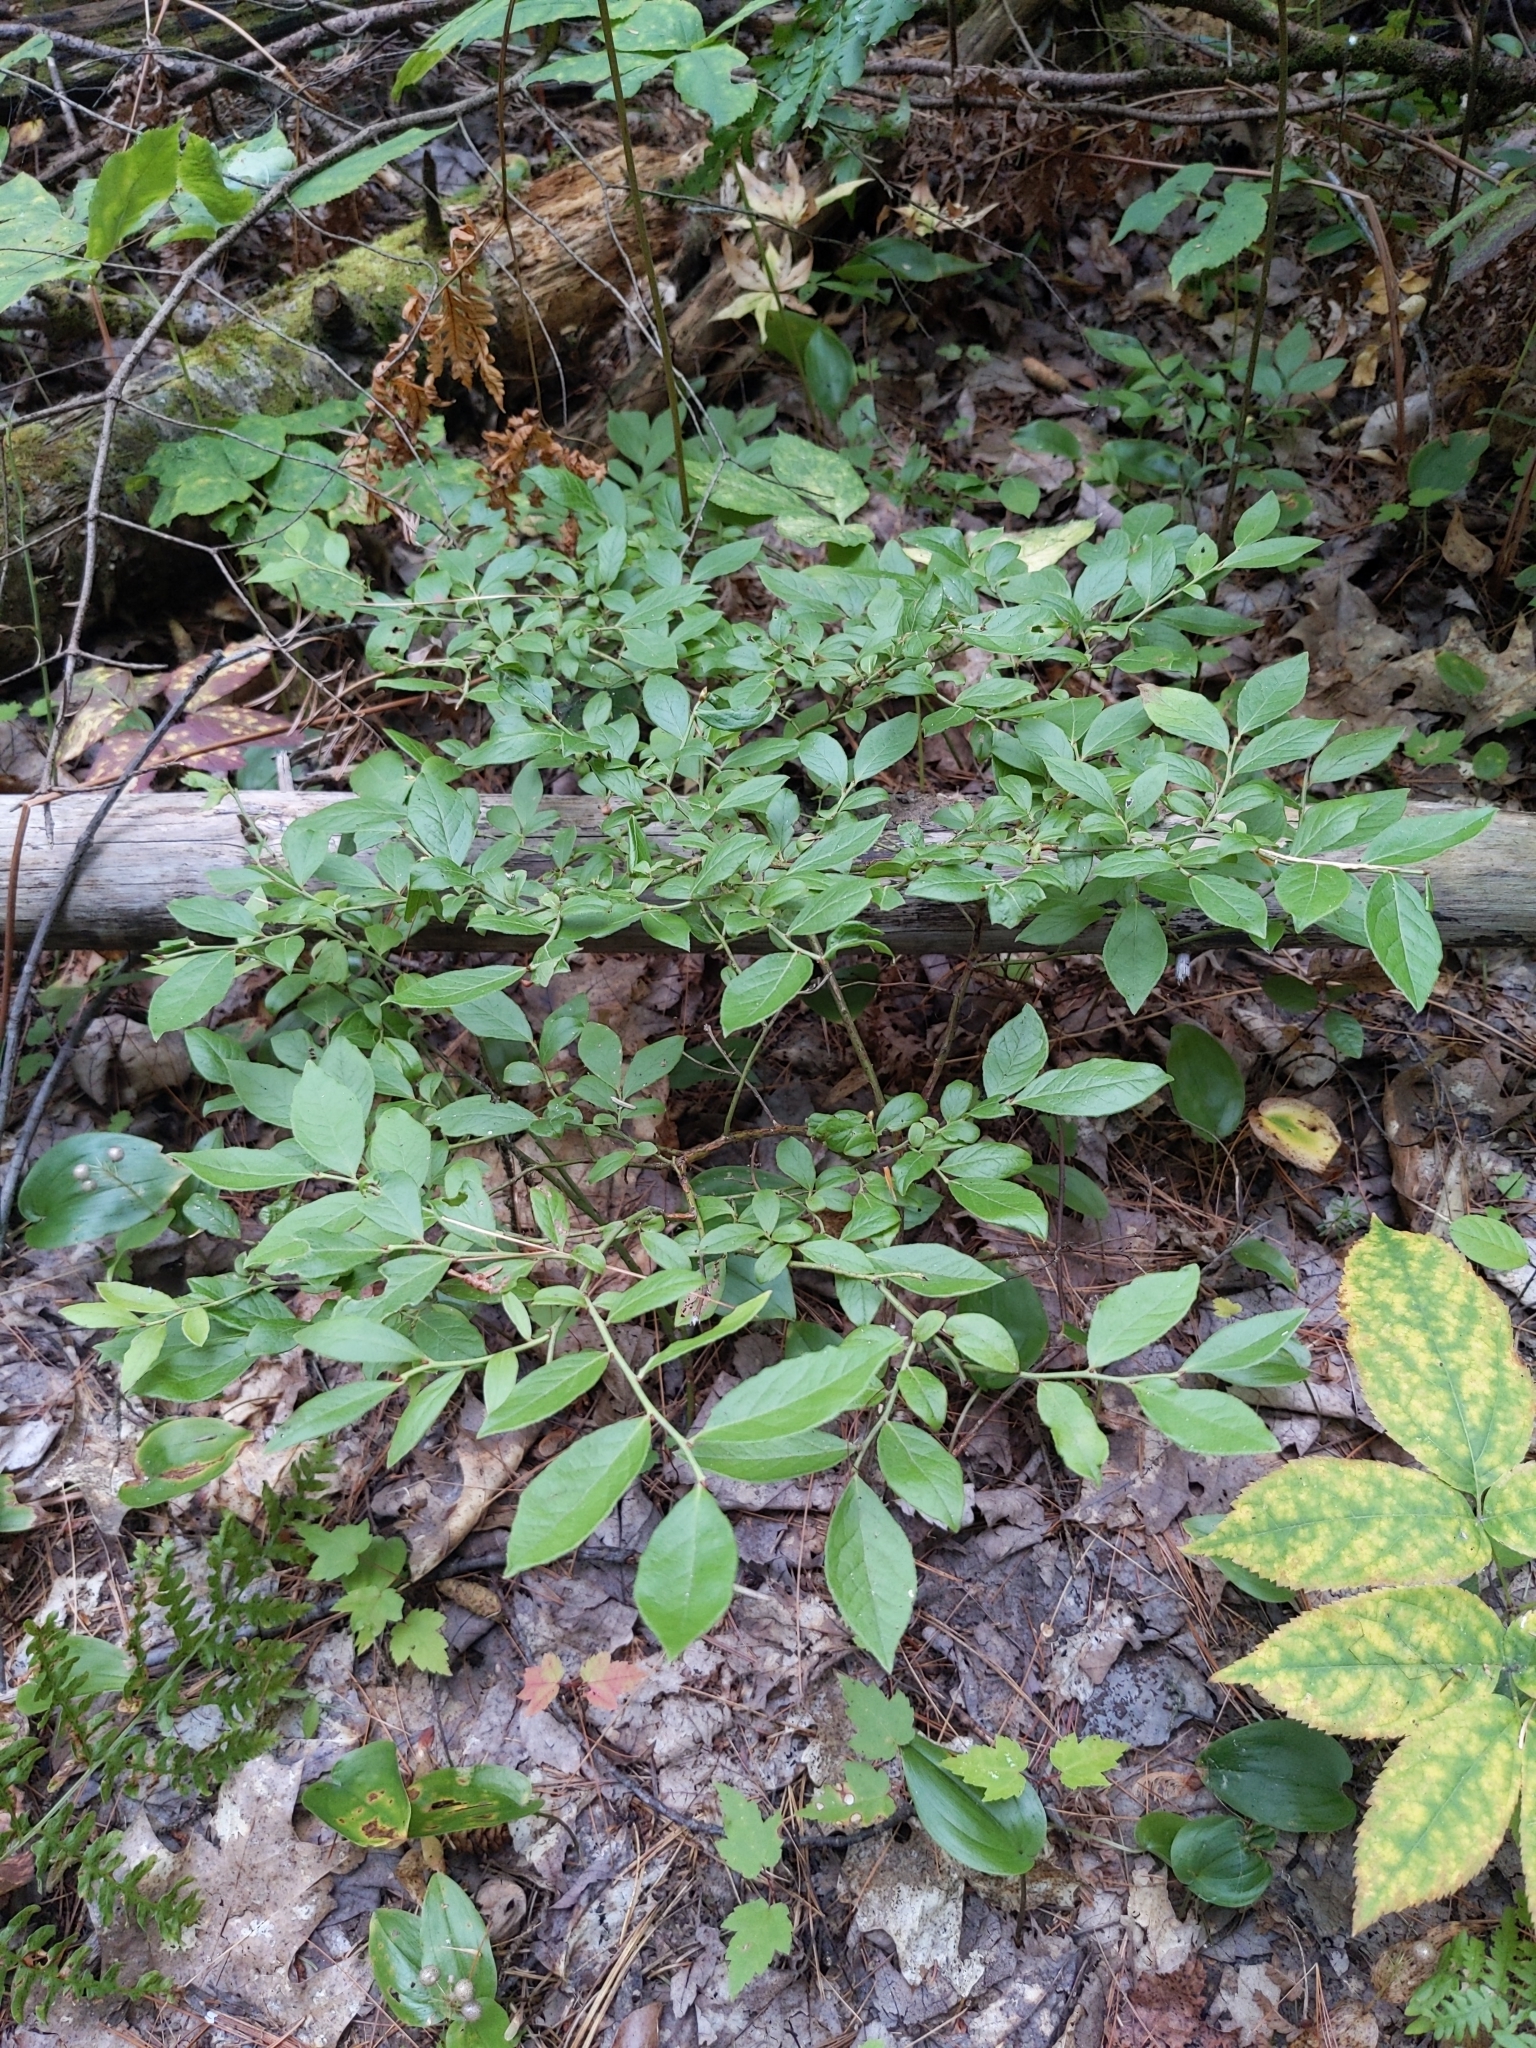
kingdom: Plantae
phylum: Tracheophyta
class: Magnoliopsida
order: Ericales
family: Ericaceae
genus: Vaccinium
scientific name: Vaccinium angustifolium
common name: Early lowbush blueberry
